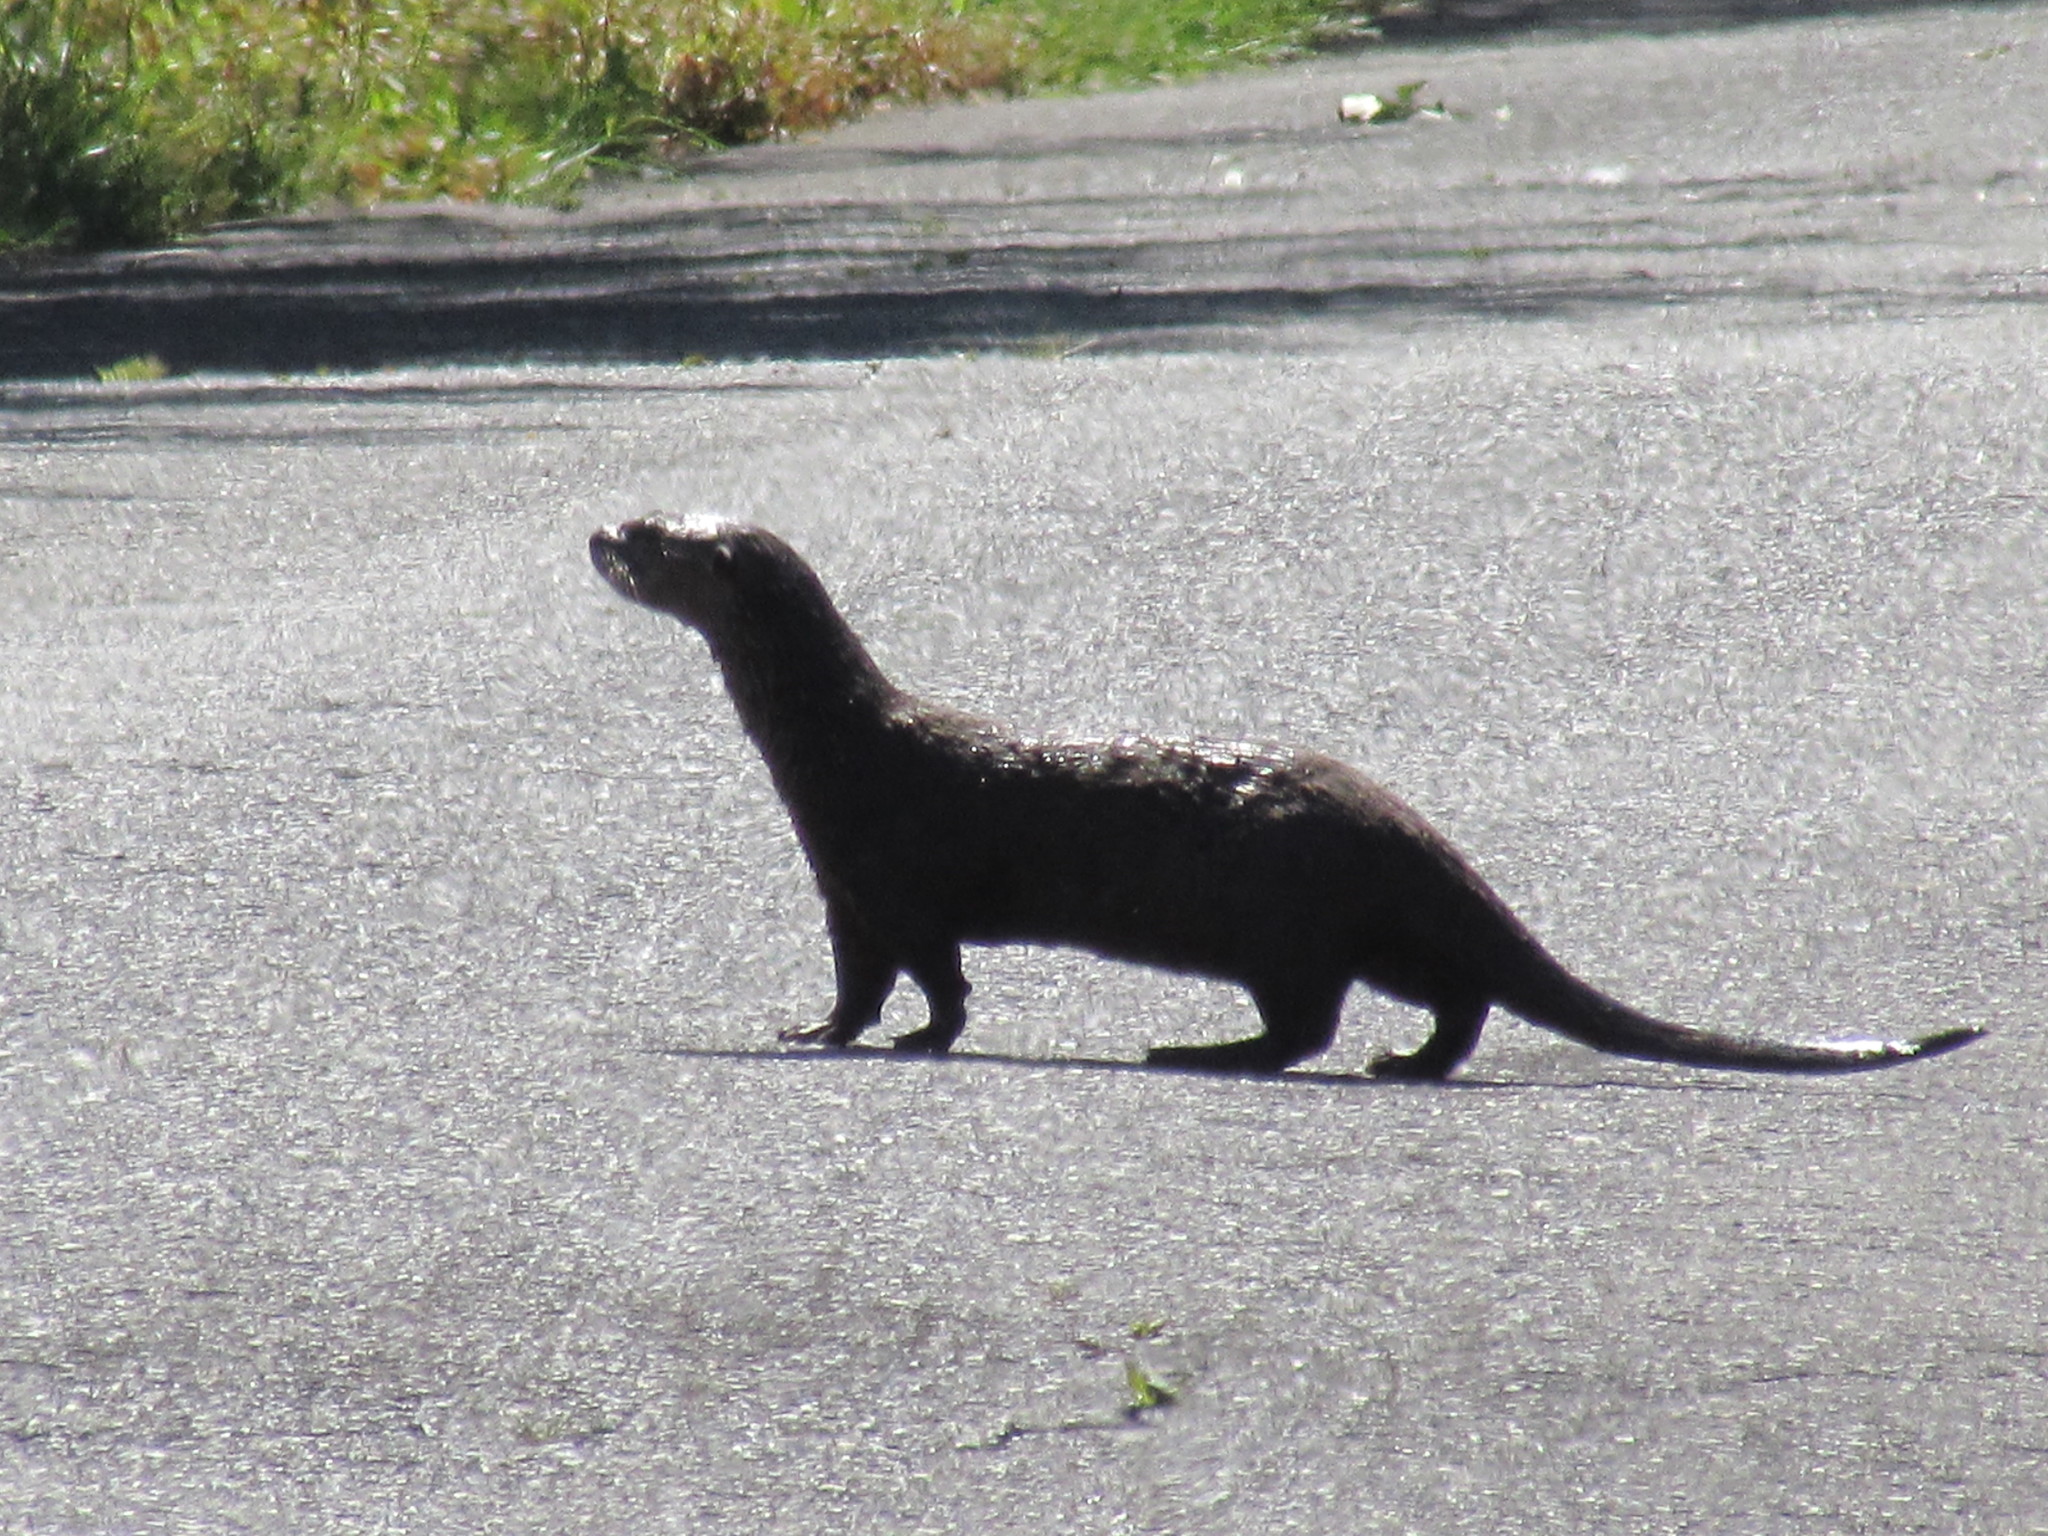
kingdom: Animalia
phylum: Chordata
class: Mammalia
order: Carnivora
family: Mustelidae
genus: Lontra
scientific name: Lontra canadensis
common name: North american river otter
